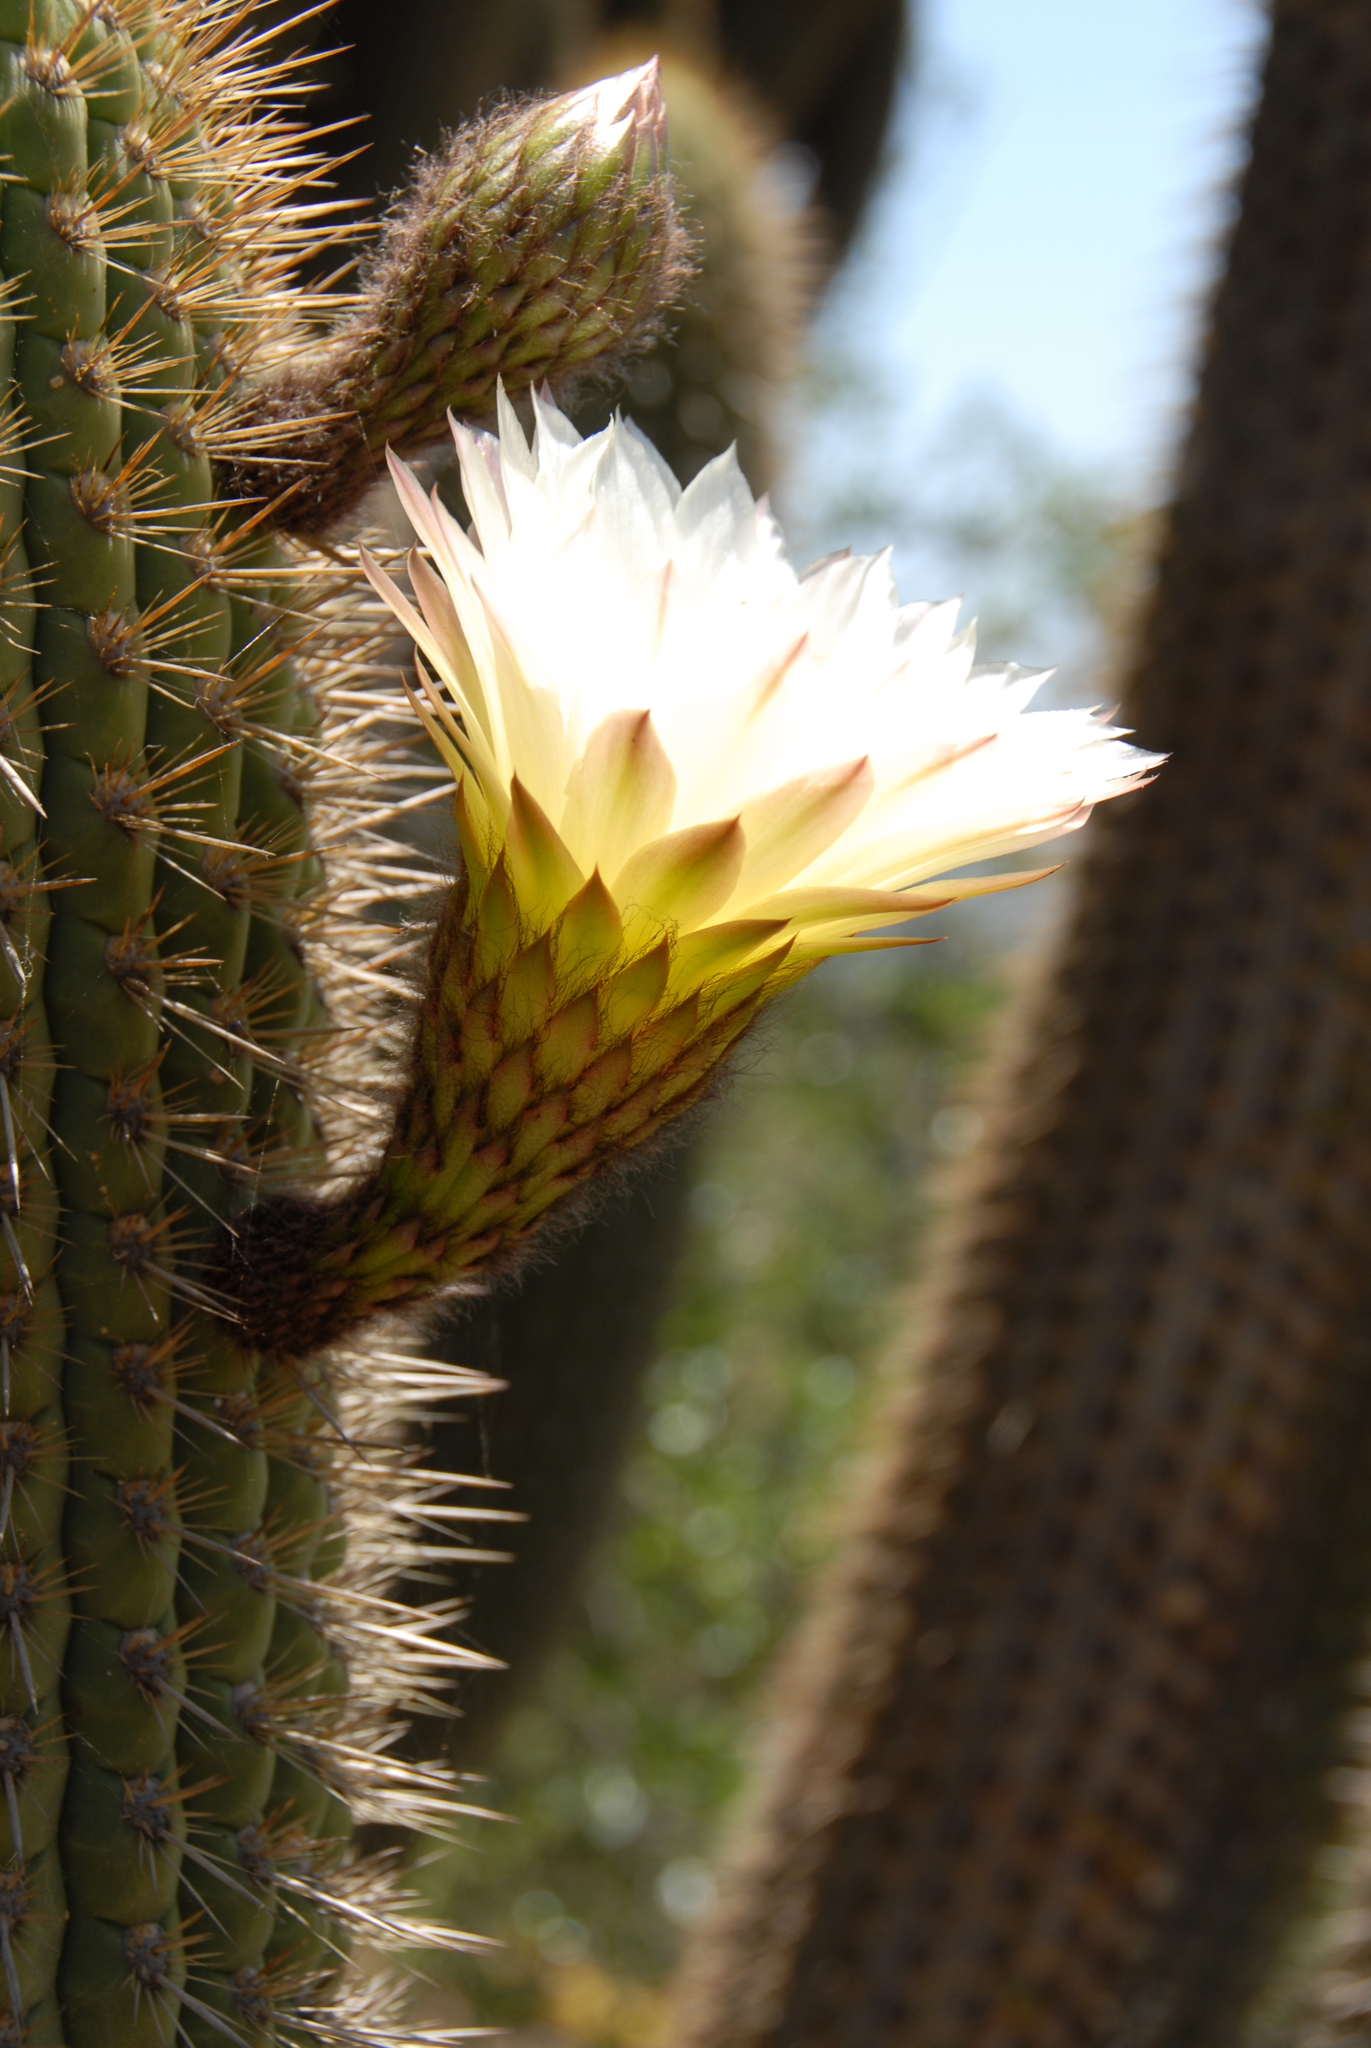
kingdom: Plantae
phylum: Tracheophyta
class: Magnoliopsida
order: Caryophyllales
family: Cactaceae
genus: Leucostele
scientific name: Leucostele chiloensis
